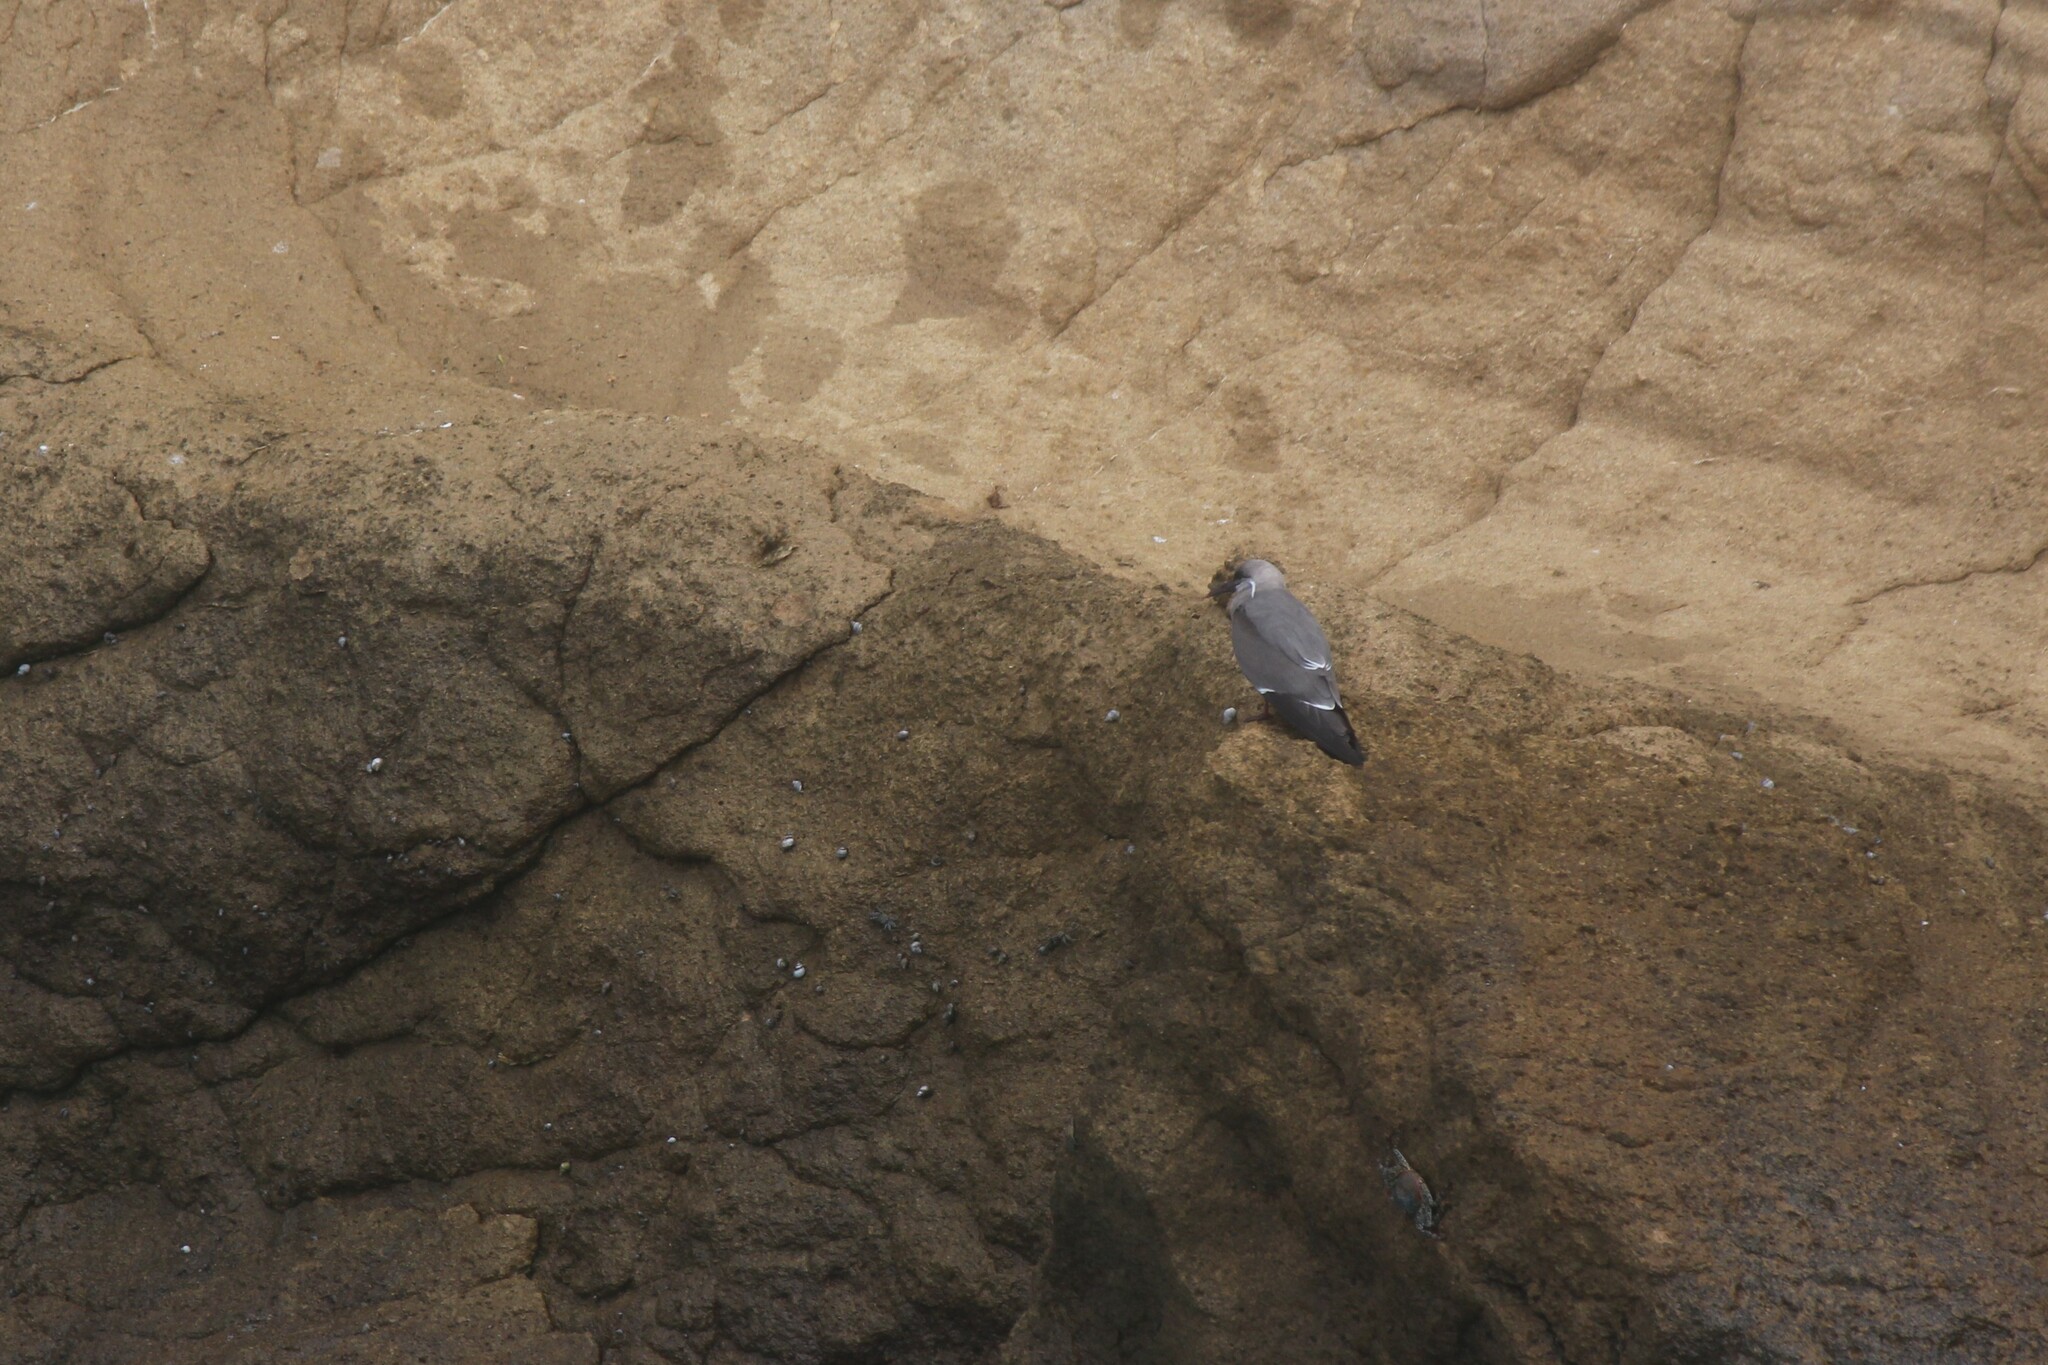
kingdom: Animalia
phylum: Chordata
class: Aves
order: Charadriiformes
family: Laridae
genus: Larosterna
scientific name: Larosterna inca
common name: Inca tern
